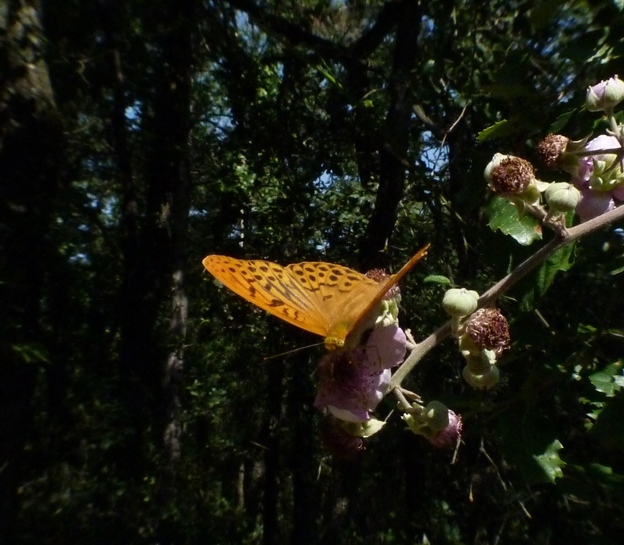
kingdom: Animalia
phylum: Arthropoda
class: Insecta
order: Lepidoptera
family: Nymphalidae
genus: Argynnis
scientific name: Argynnis paphia
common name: Silver-washed fritillary
